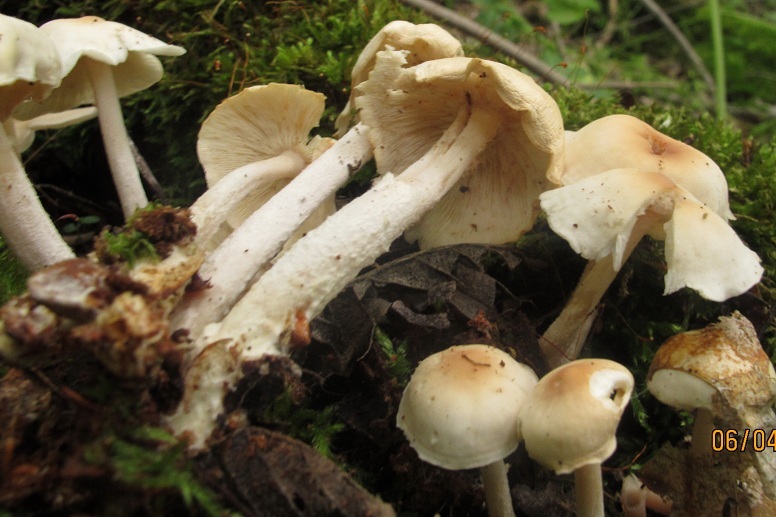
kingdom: Fungi
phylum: Basidiomycota
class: Agaricomycetes
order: Agaricales
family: Omphalotaceae
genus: Gymnopus
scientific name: Gymnopus polyphyllus
